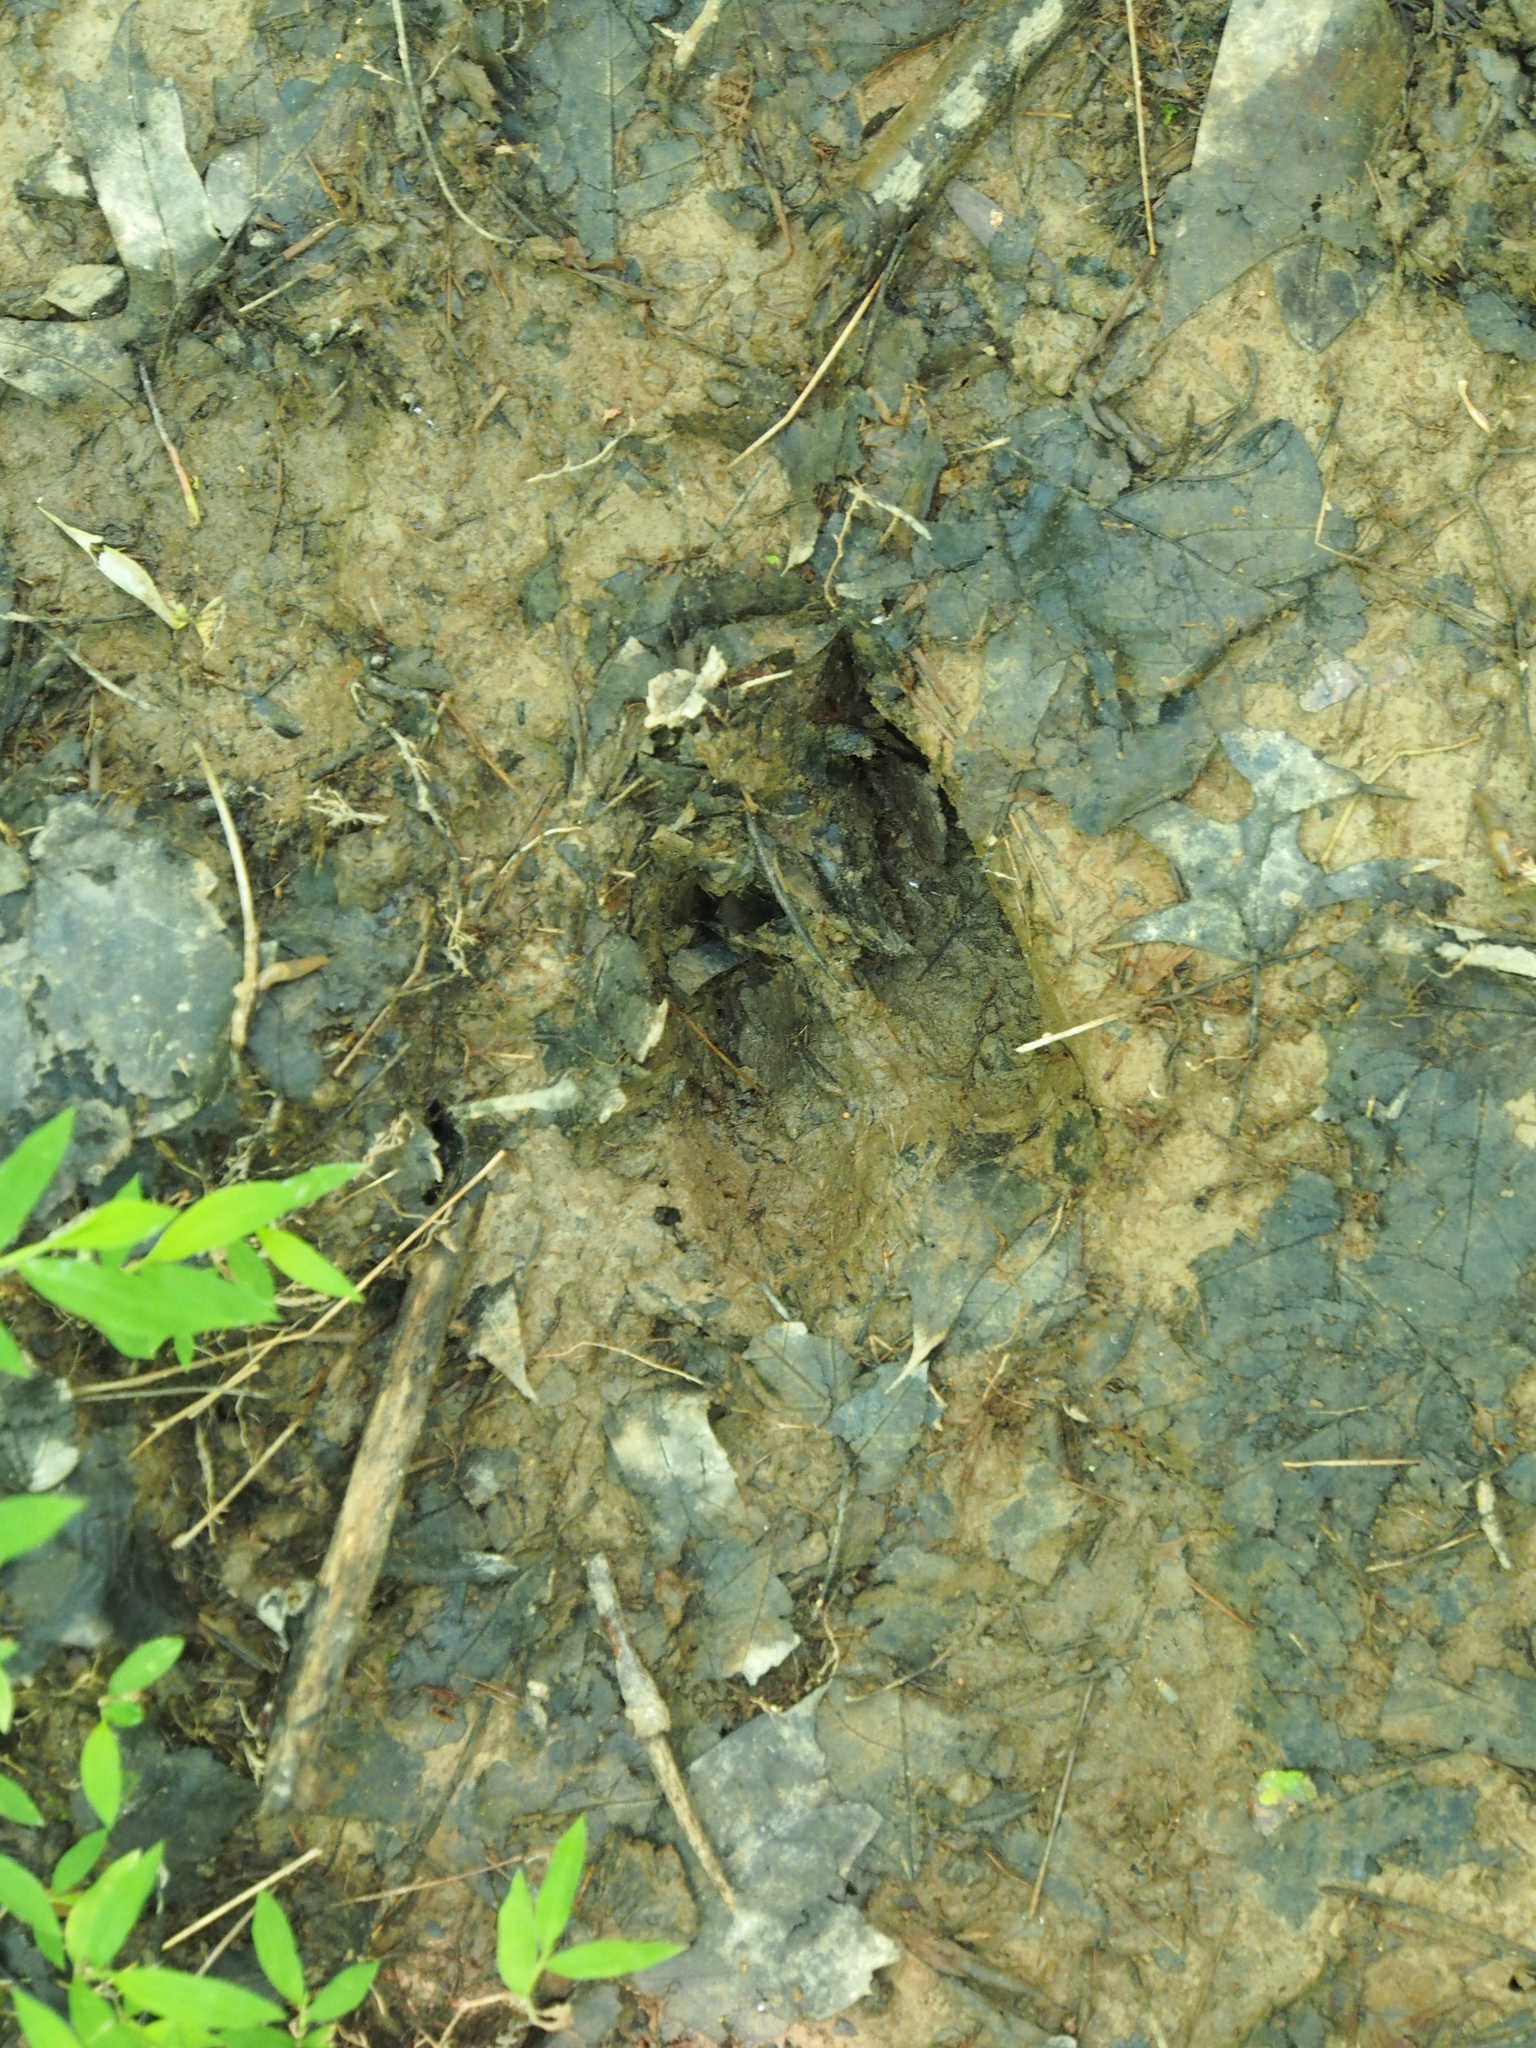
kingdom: Animalia
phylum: Chordata
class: Mammalia
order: Artiodactyla
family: Cervidae
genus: Odocoileus
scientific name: Odocoileus virginianus
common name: White-tailed deer
